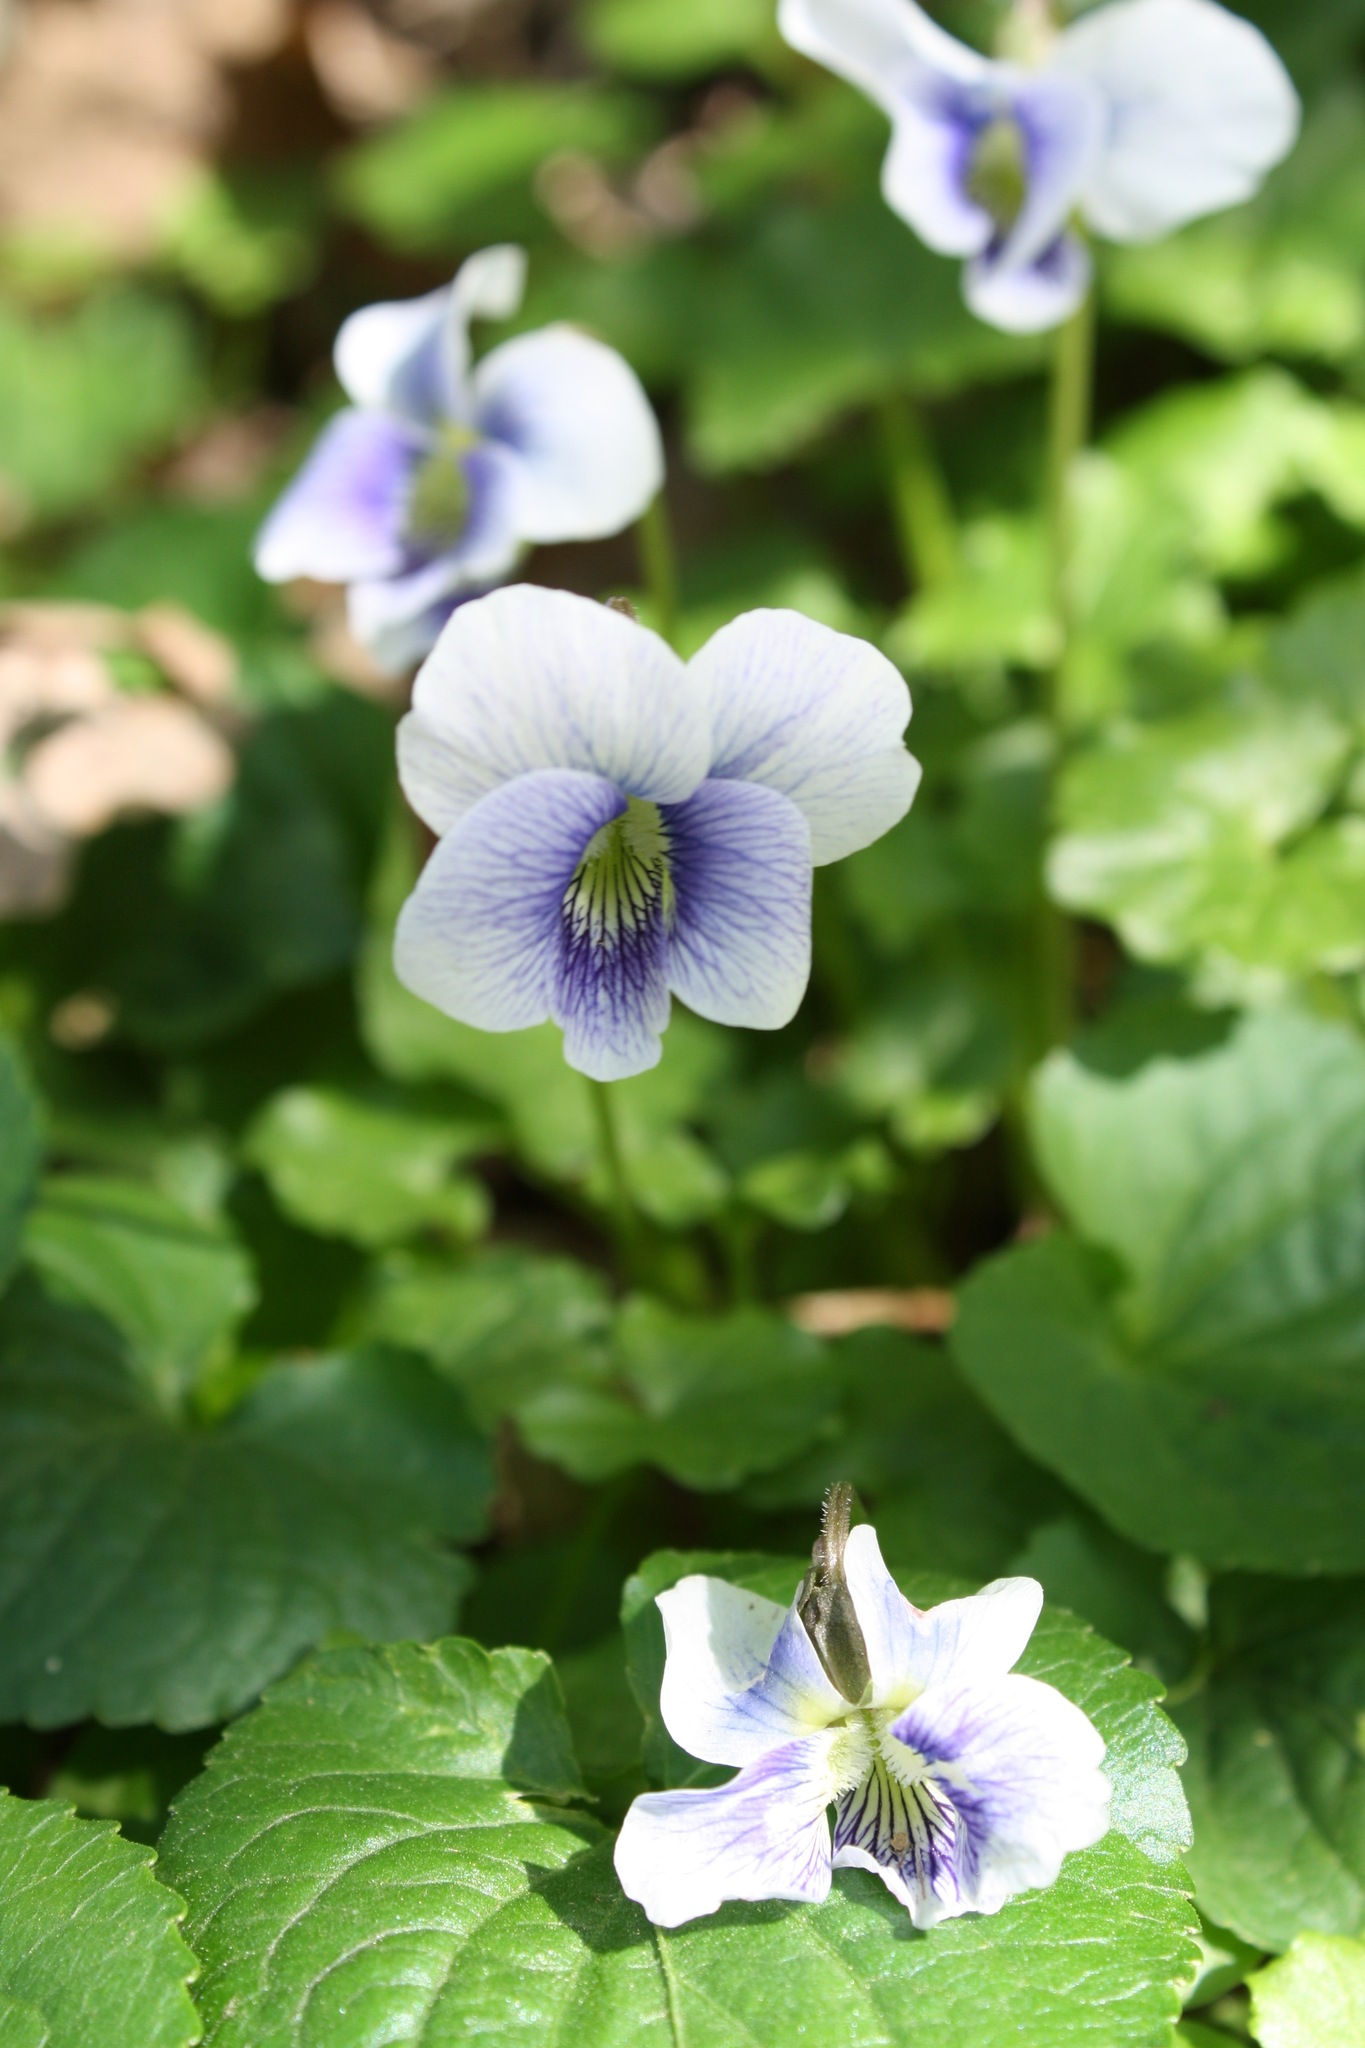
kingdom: Plantae
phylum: Tracheophyta
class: Magnoliopsida
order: Malpighiales
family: Violaceae
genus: Viola
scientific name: Viola sororia
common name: Dooryard violet
